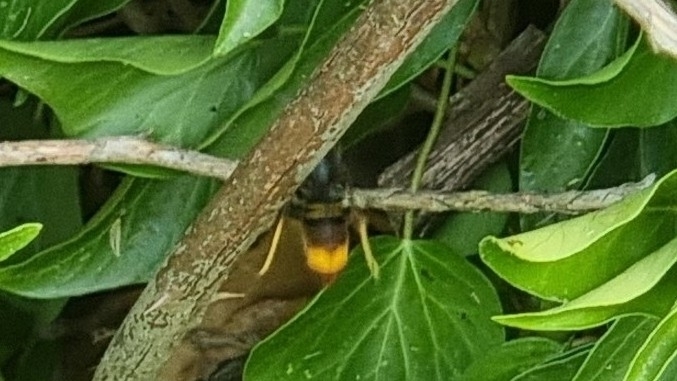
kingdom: Animalia
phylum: Arthropoda
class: Insecta
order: Hymenoptera
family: Vespidae
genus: Vespa
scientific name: Vespa velutina
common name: Asian hornet
